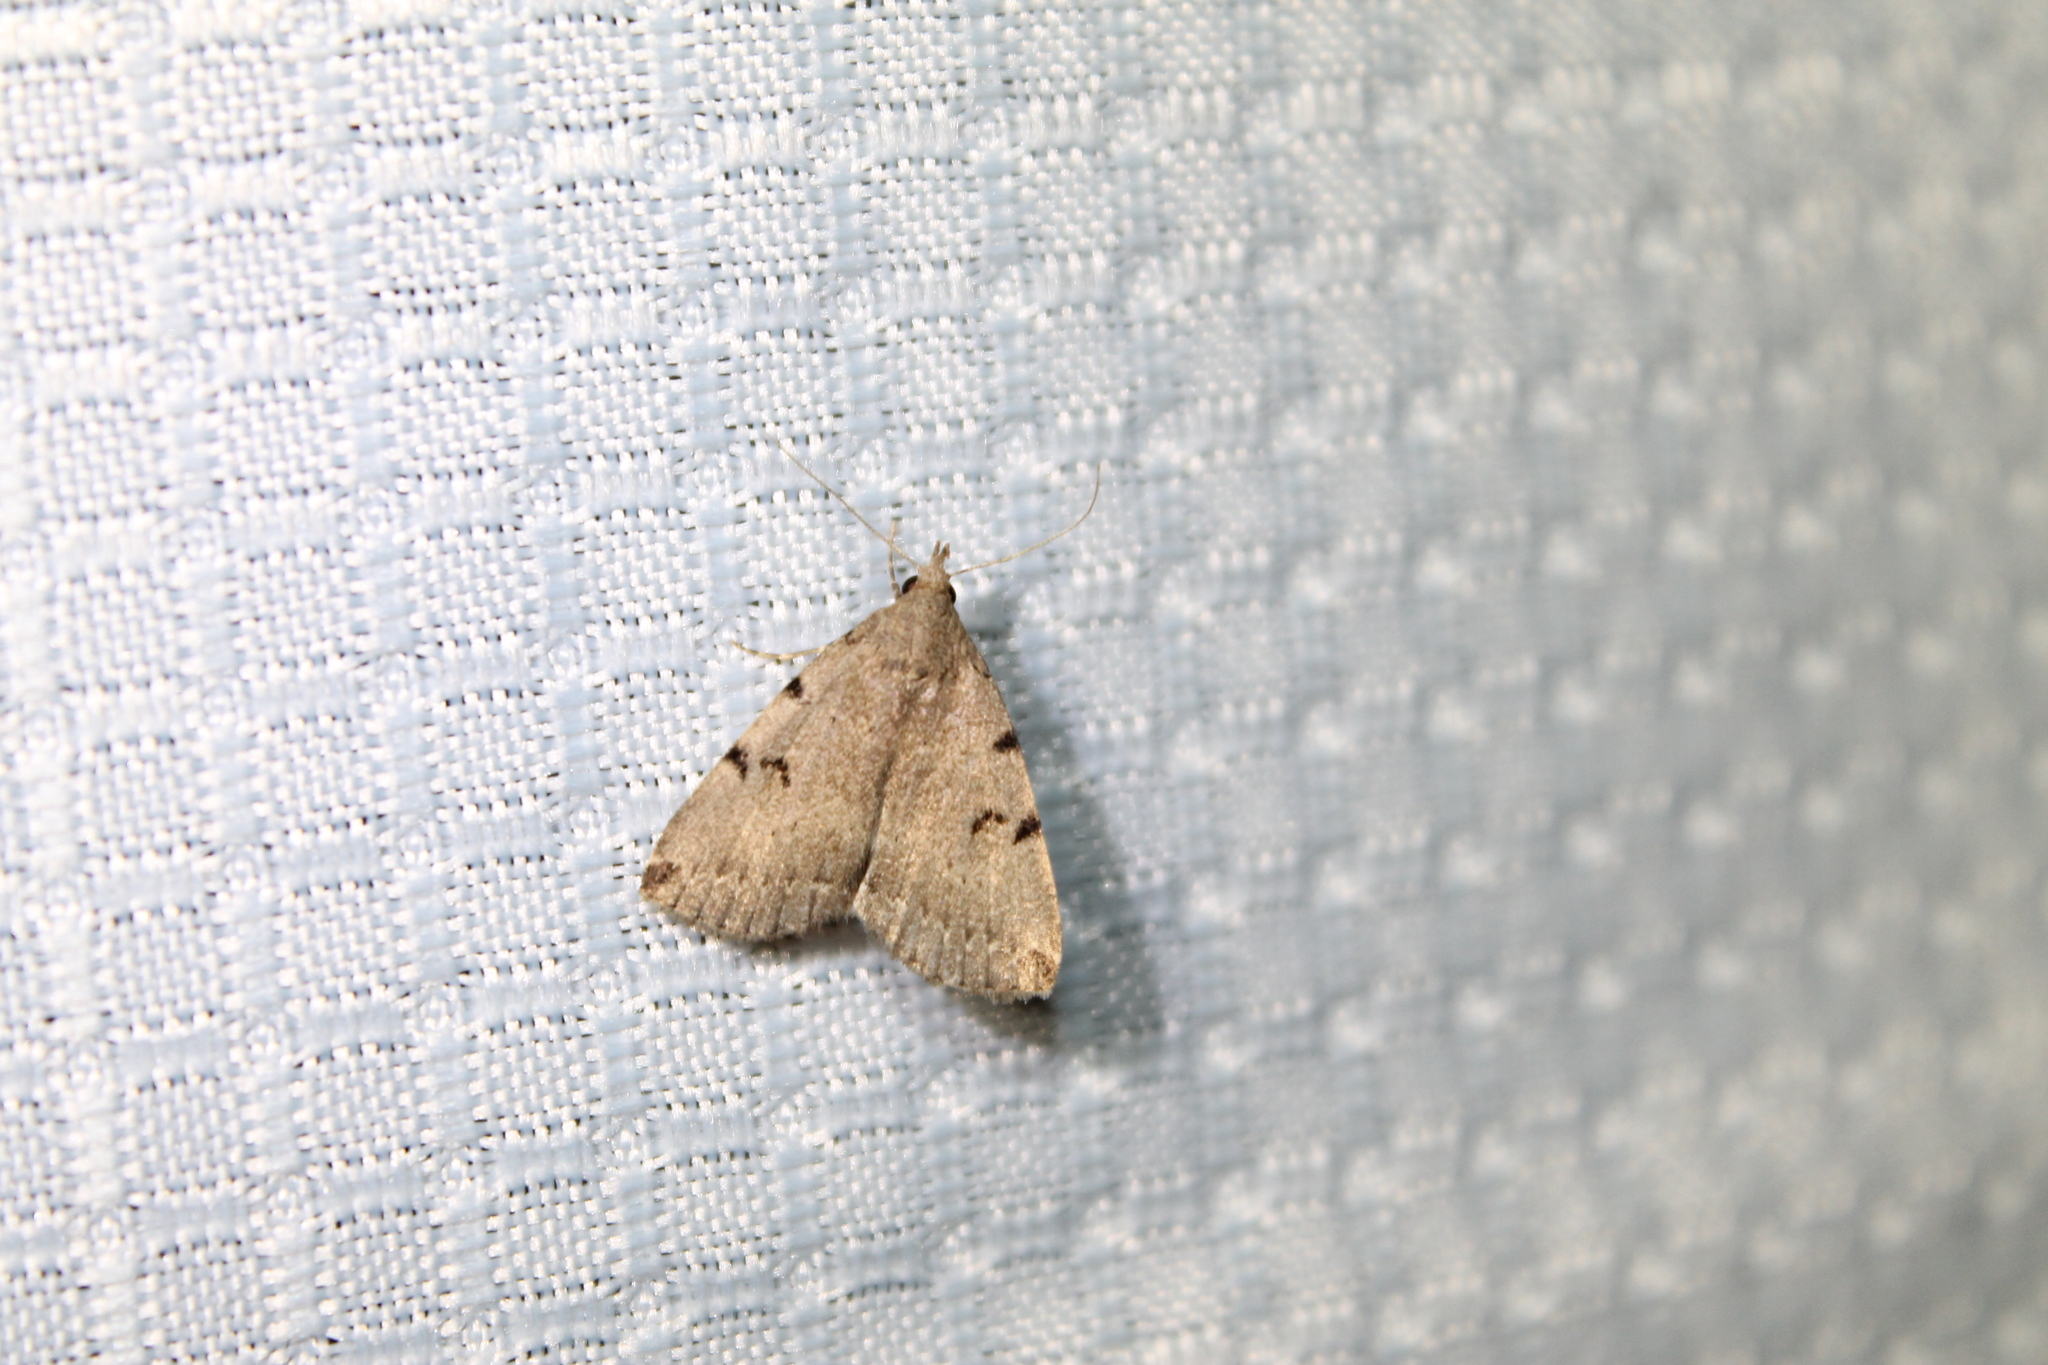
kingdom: Animalia
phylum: Arthropoda
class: Insecta
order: Lepidoptera
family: Erebidae
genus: Zanclognatha
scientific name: Zanclognatha lituralis
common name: Lettered fan-foot
